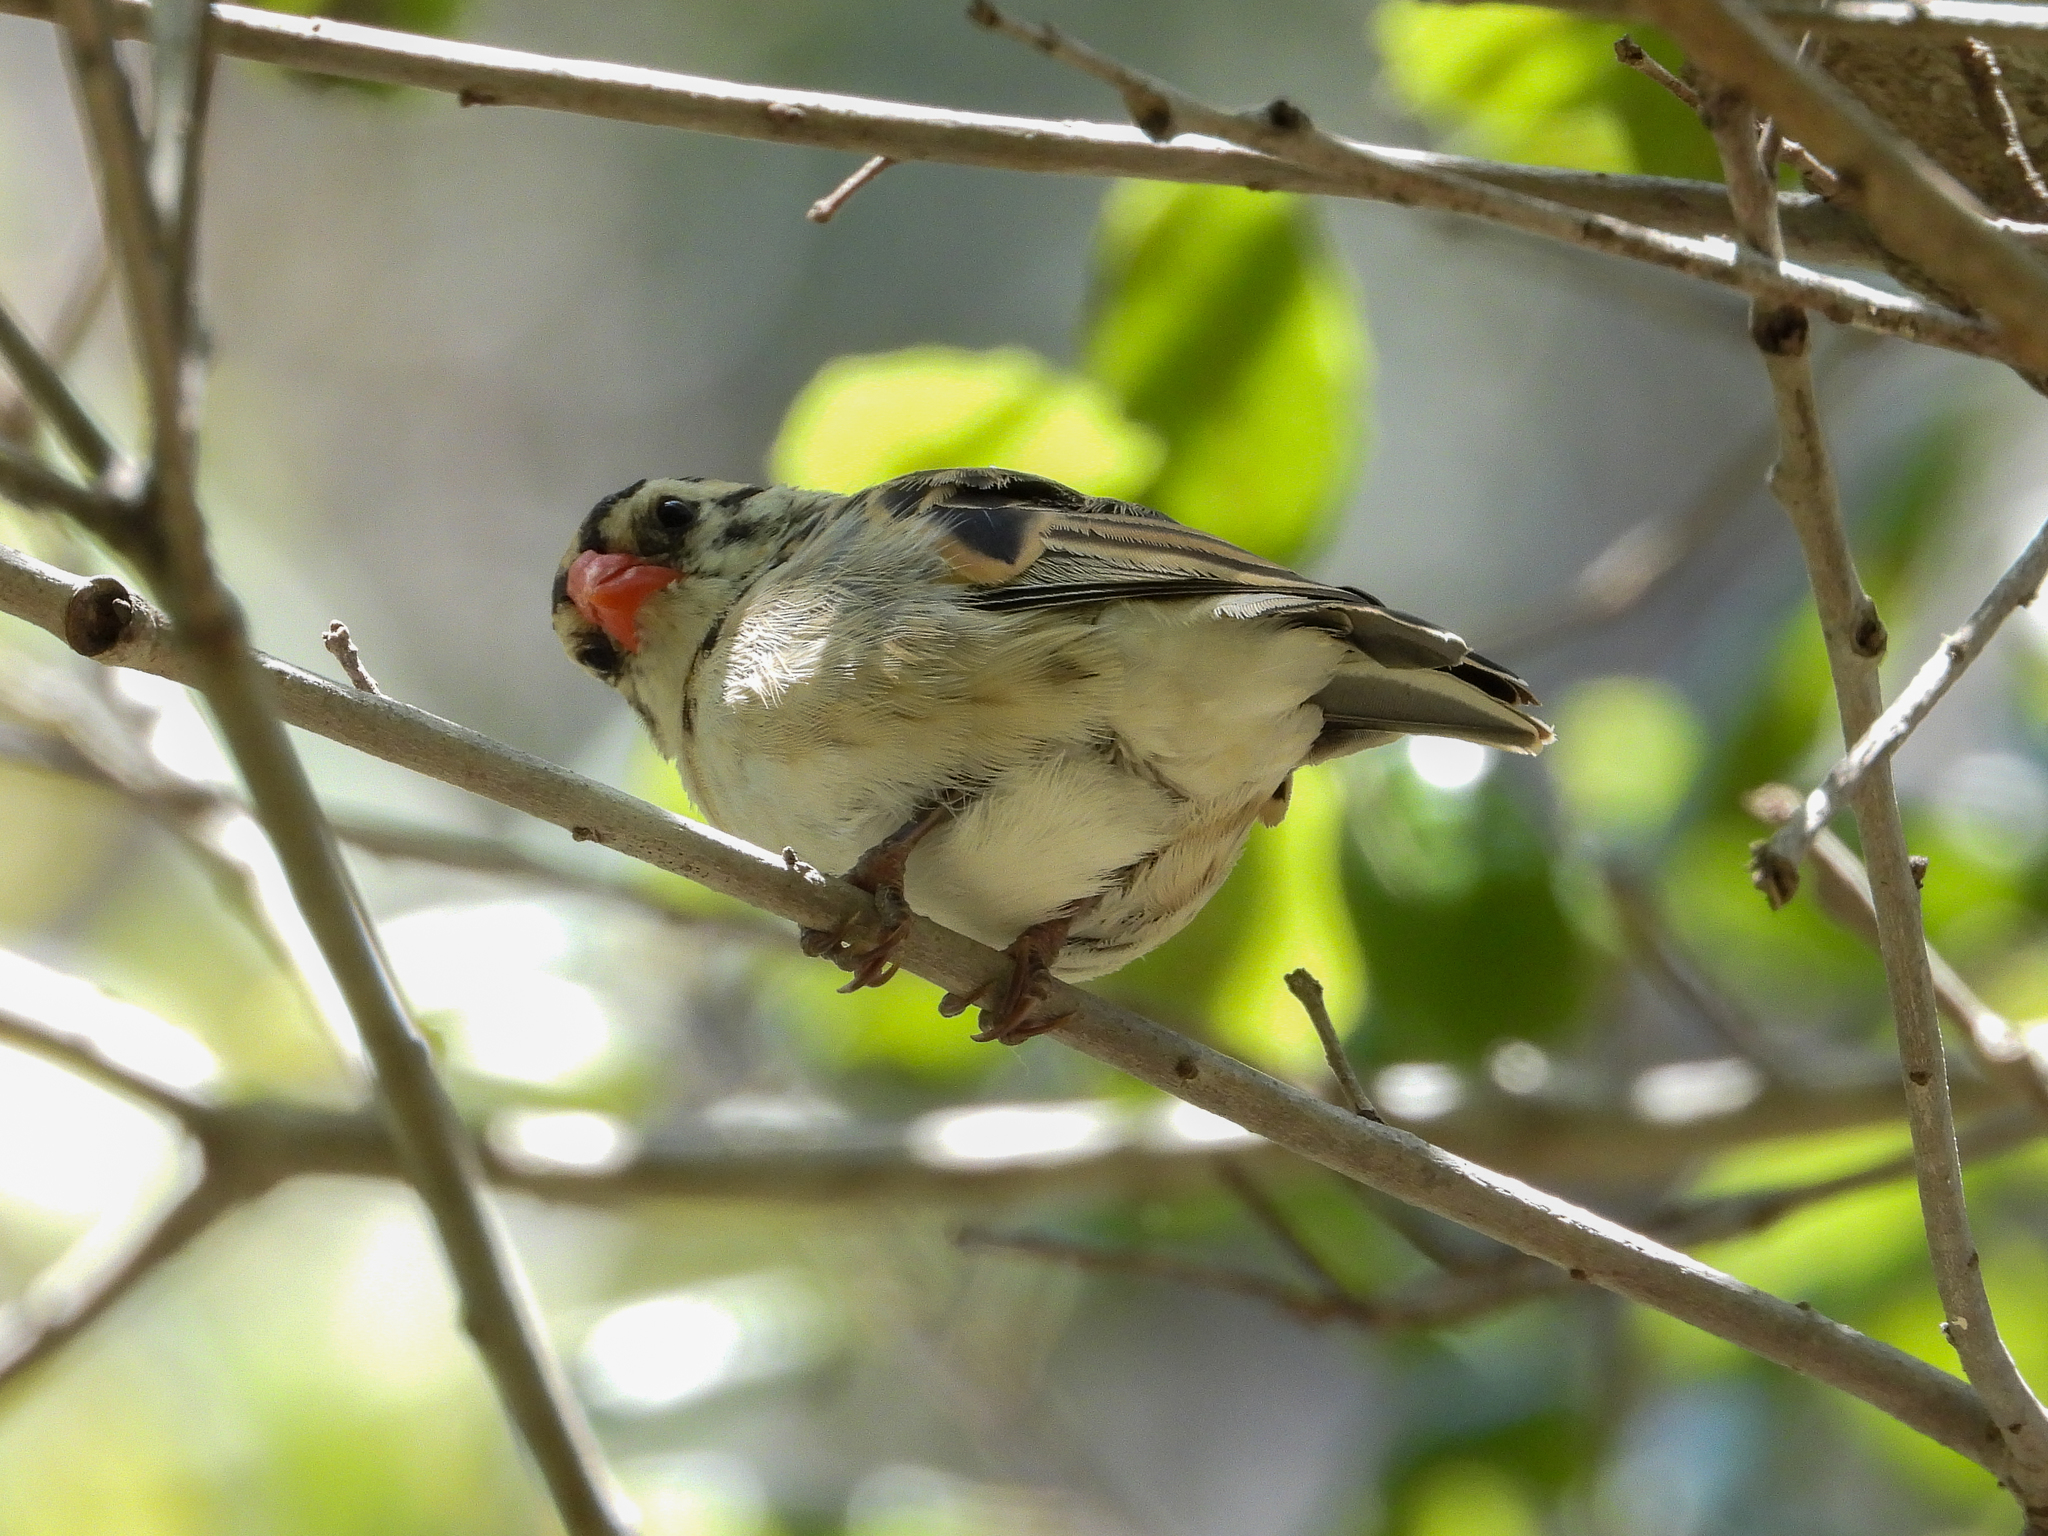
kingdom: Animalia
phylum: Chordata
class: Aves
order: Passeriformes
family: Viduidae
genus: Vidua
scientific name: Vidua macroura
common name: Pin-tailed whydah
